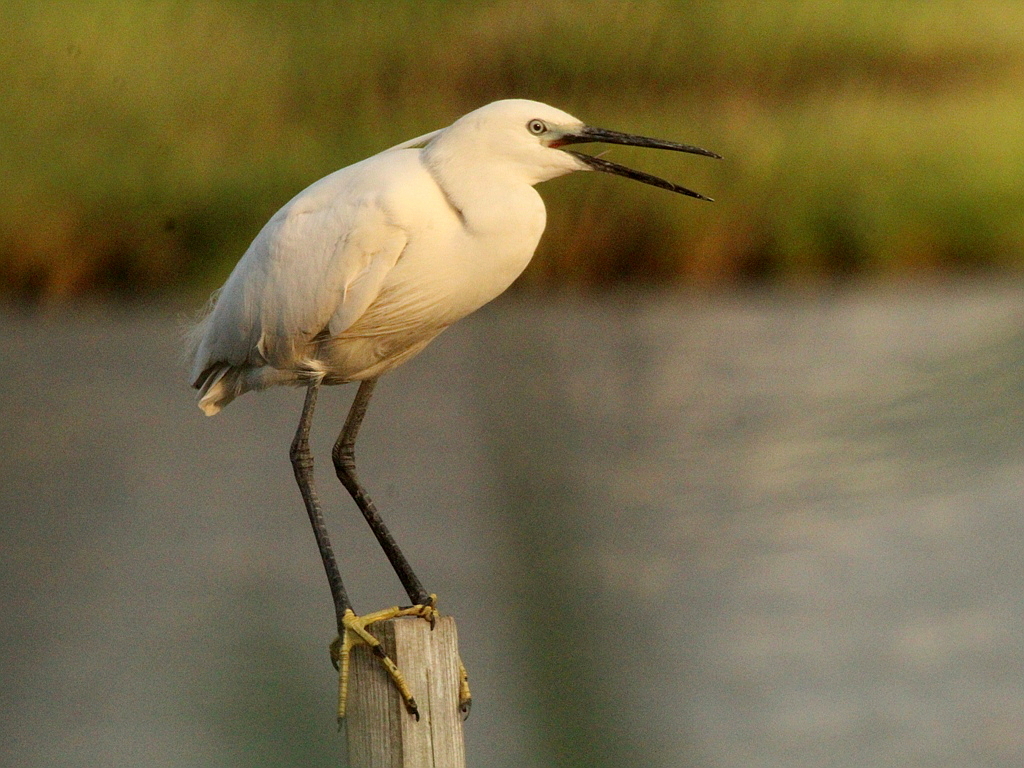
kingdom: Animalia
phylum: Chordata
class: Aves
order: Pelecaniformes
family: Ardeidae
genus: Egretta
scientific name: Egretta garzetta
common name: Little egret
